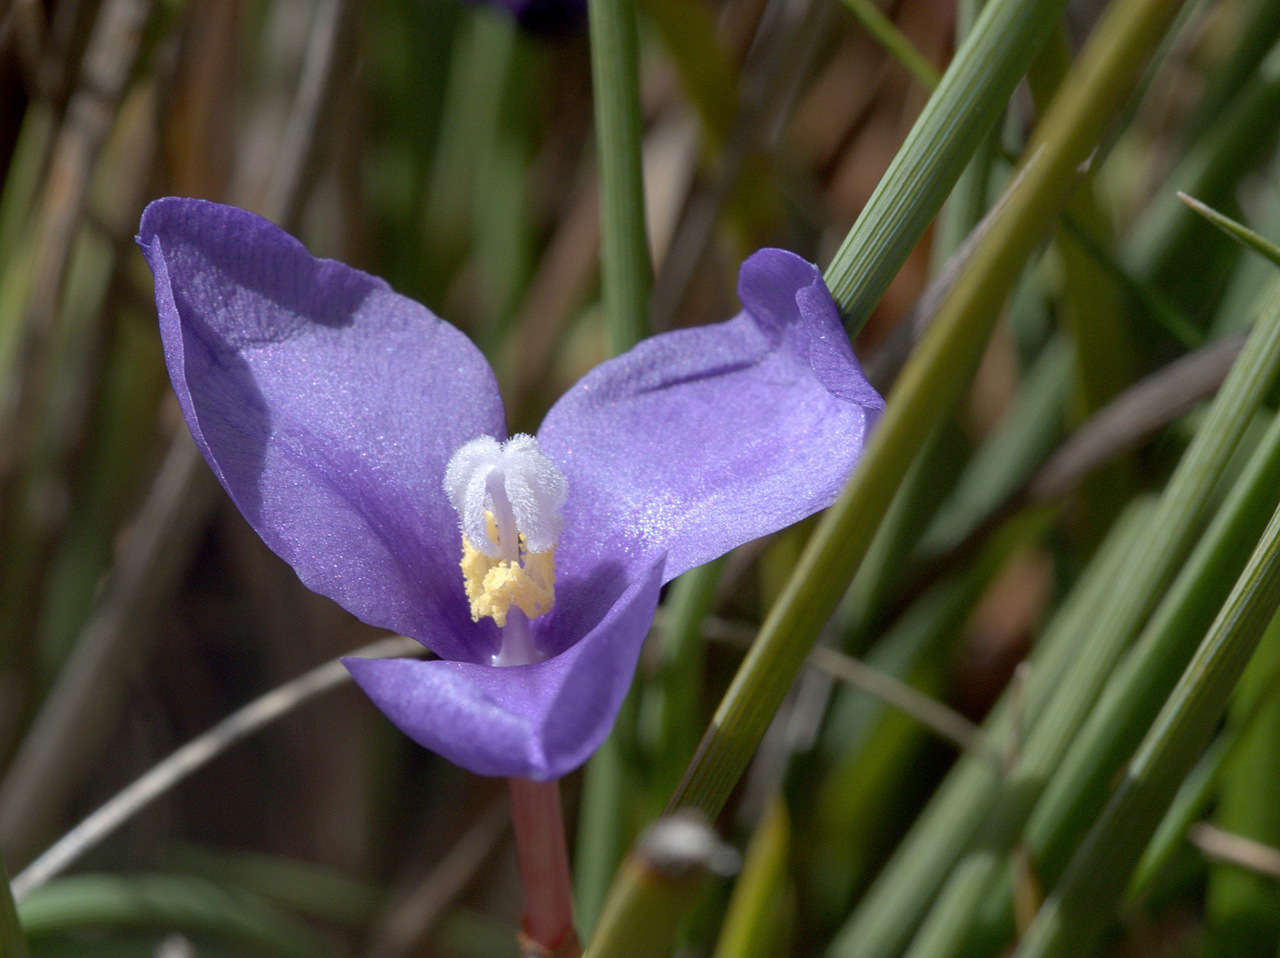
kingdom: Plantae
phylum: Tracheophyta
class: Liliopsida
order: Asparagales
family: Iridaceae
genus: Patersonia
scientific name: Patersonia fragilis
